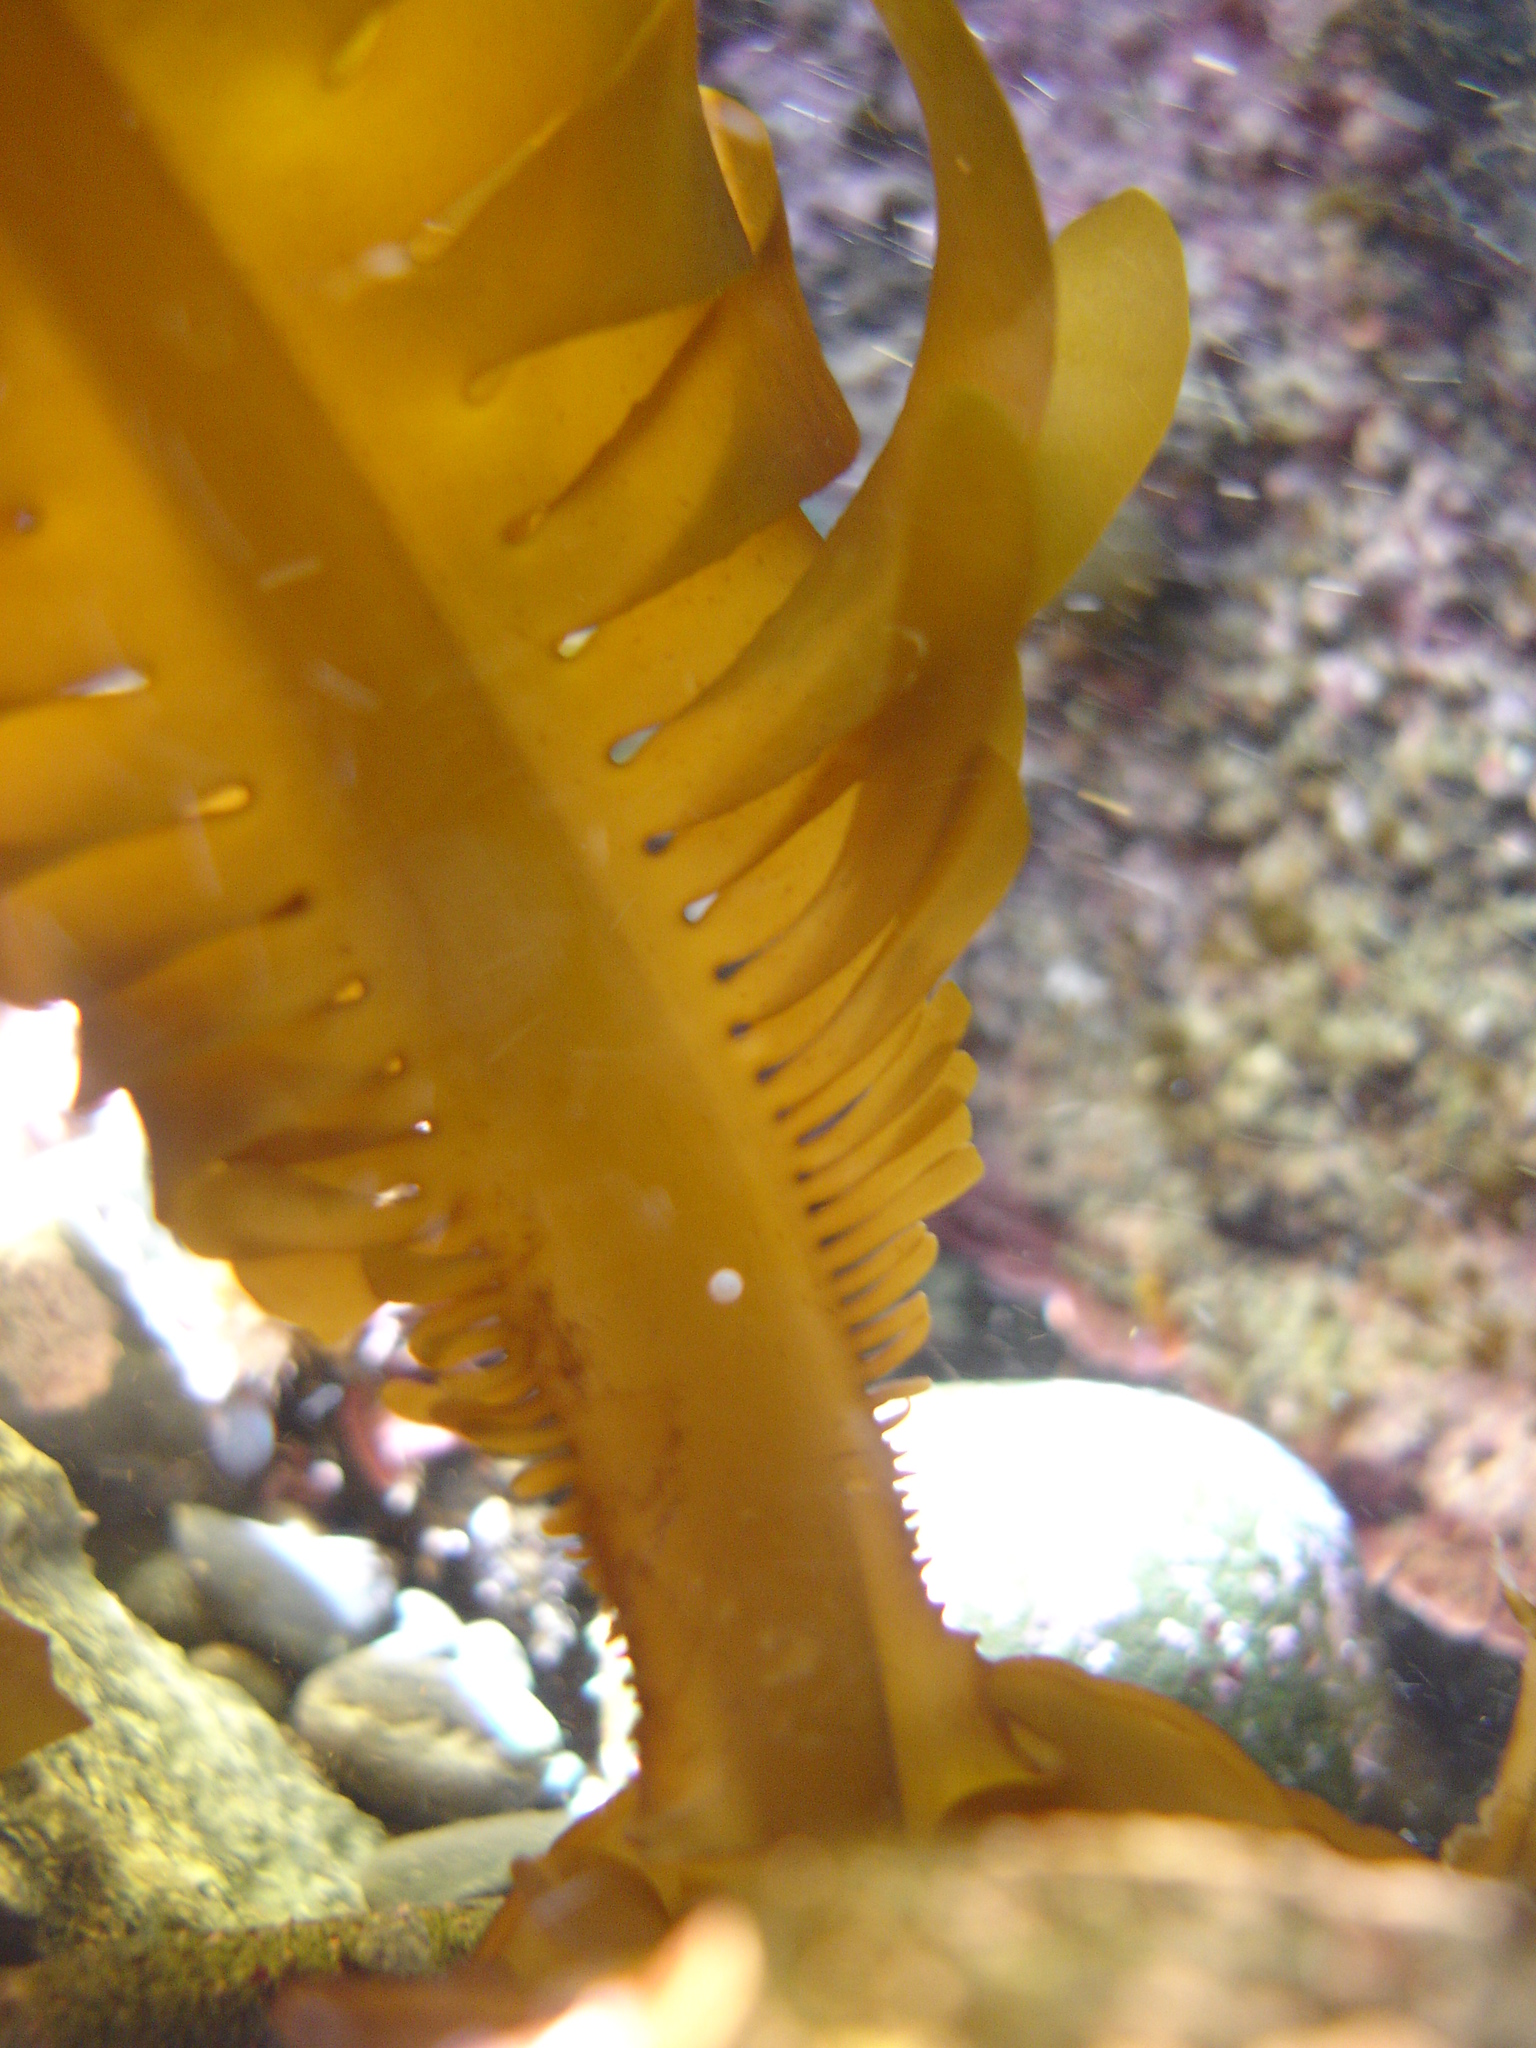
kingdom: Chromista
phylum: Ochrophyta
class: Phaeophyceae
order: Laminariales
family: Alariaceae
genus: Undaria
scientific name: Undaria pinnatifida
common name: Asian kelp
